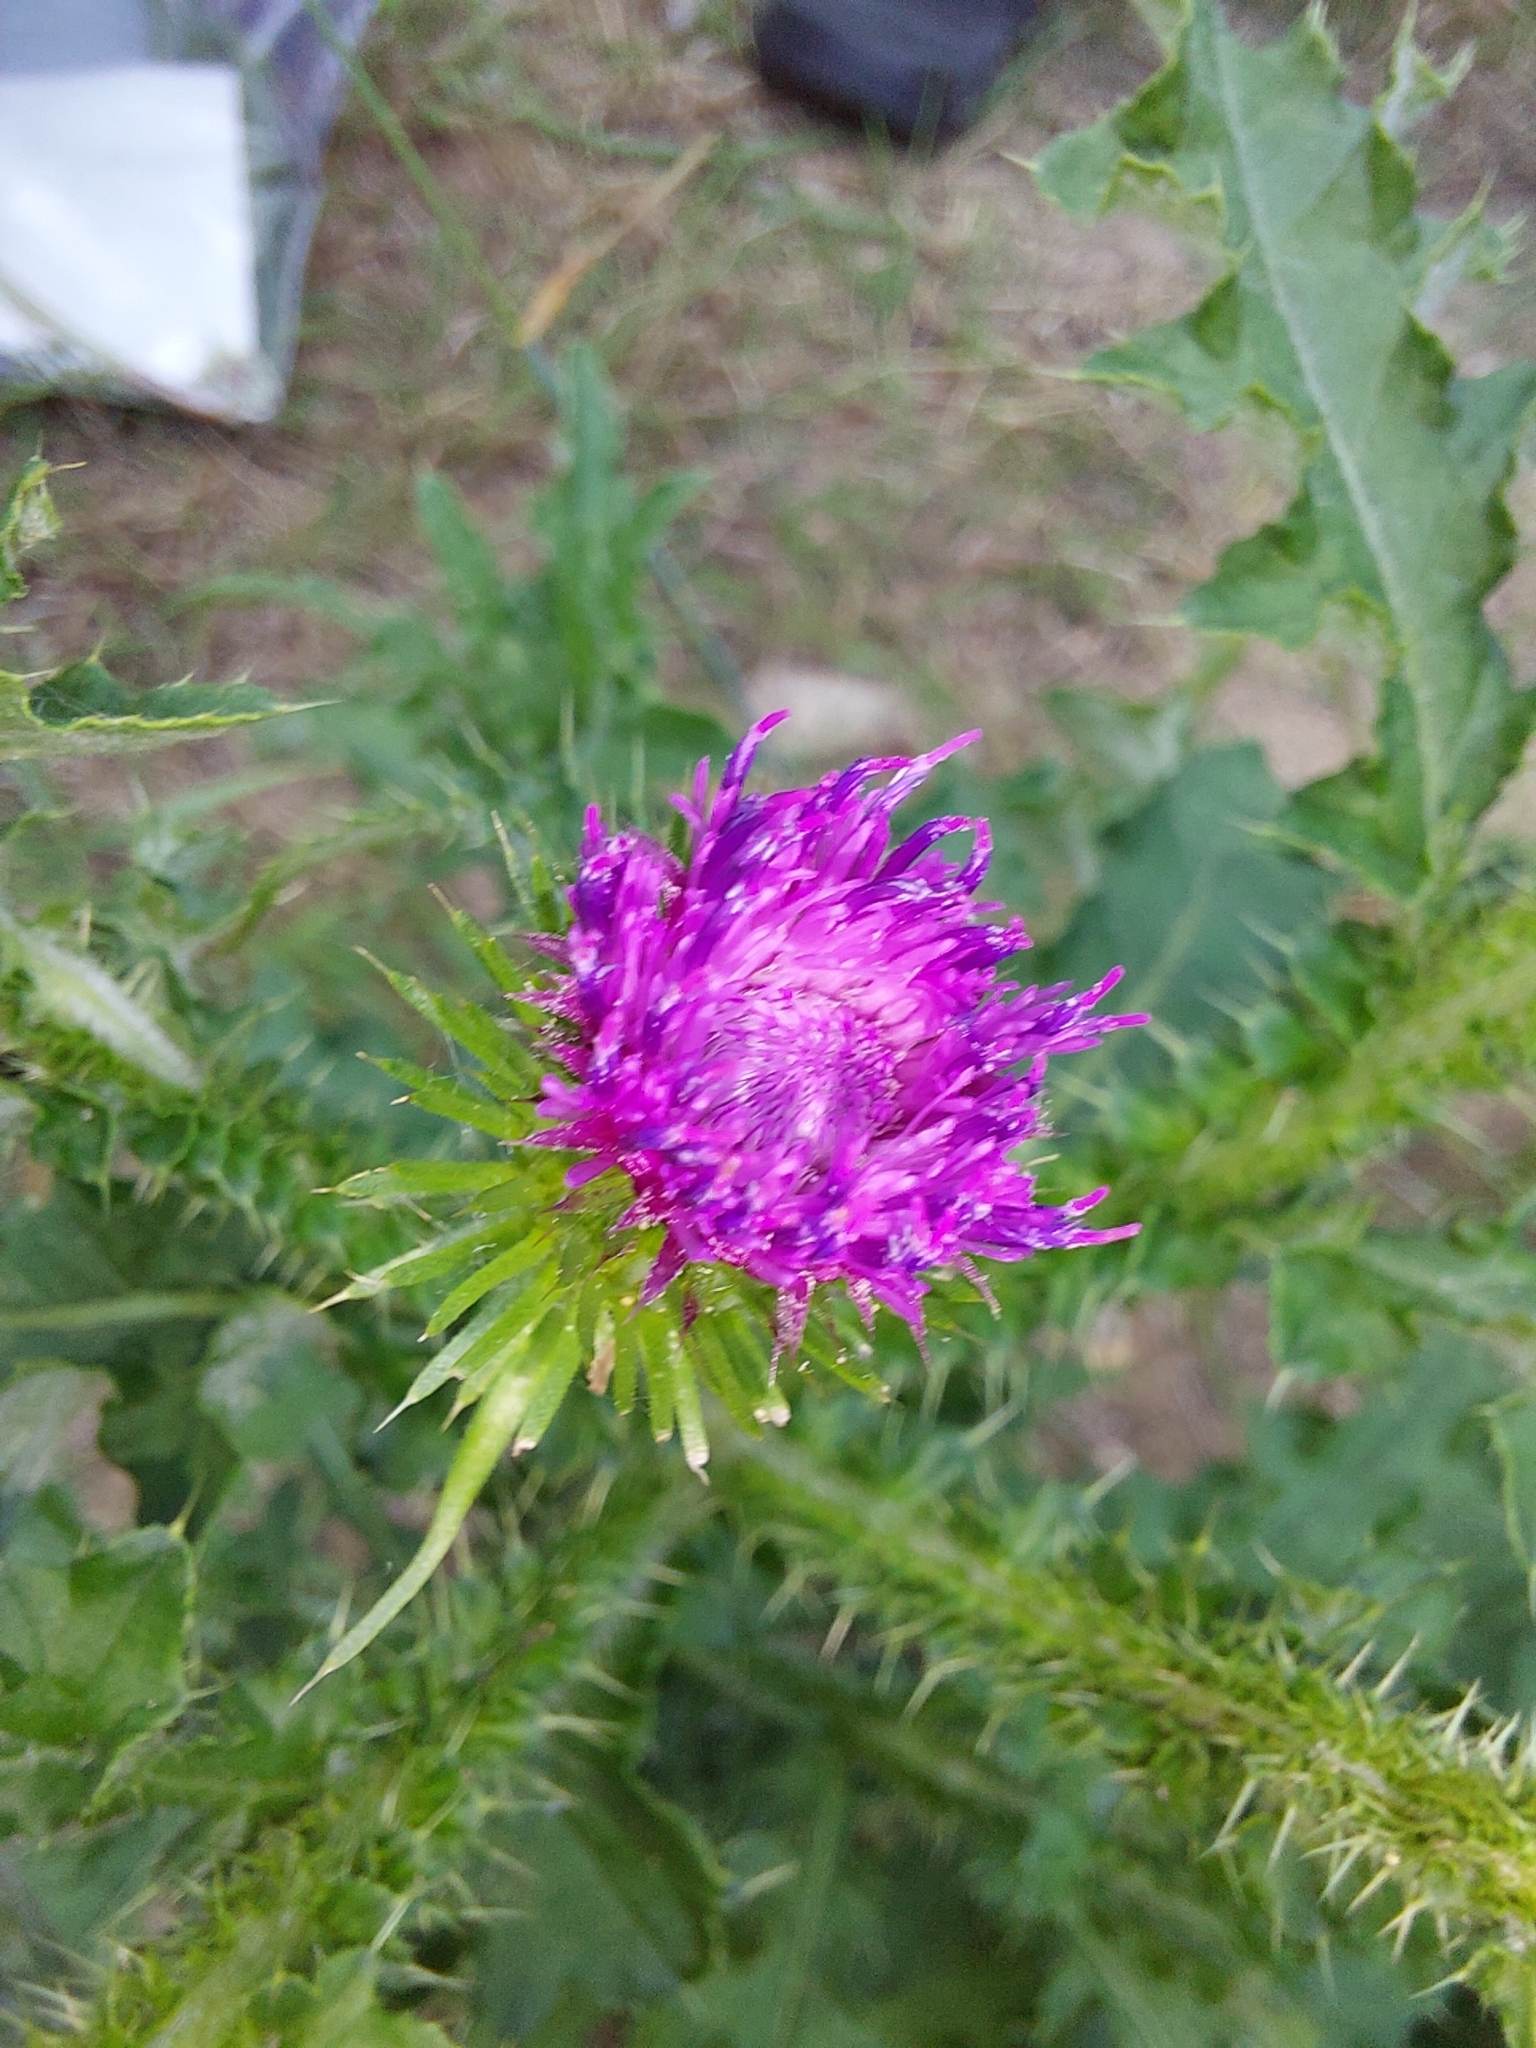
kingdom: Plantae
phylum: Tracheophyta
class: Magnoliopsida
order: Asterales
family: Asteraceae
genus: Carduus
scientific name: Carduus crispus
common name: Welted thistle
